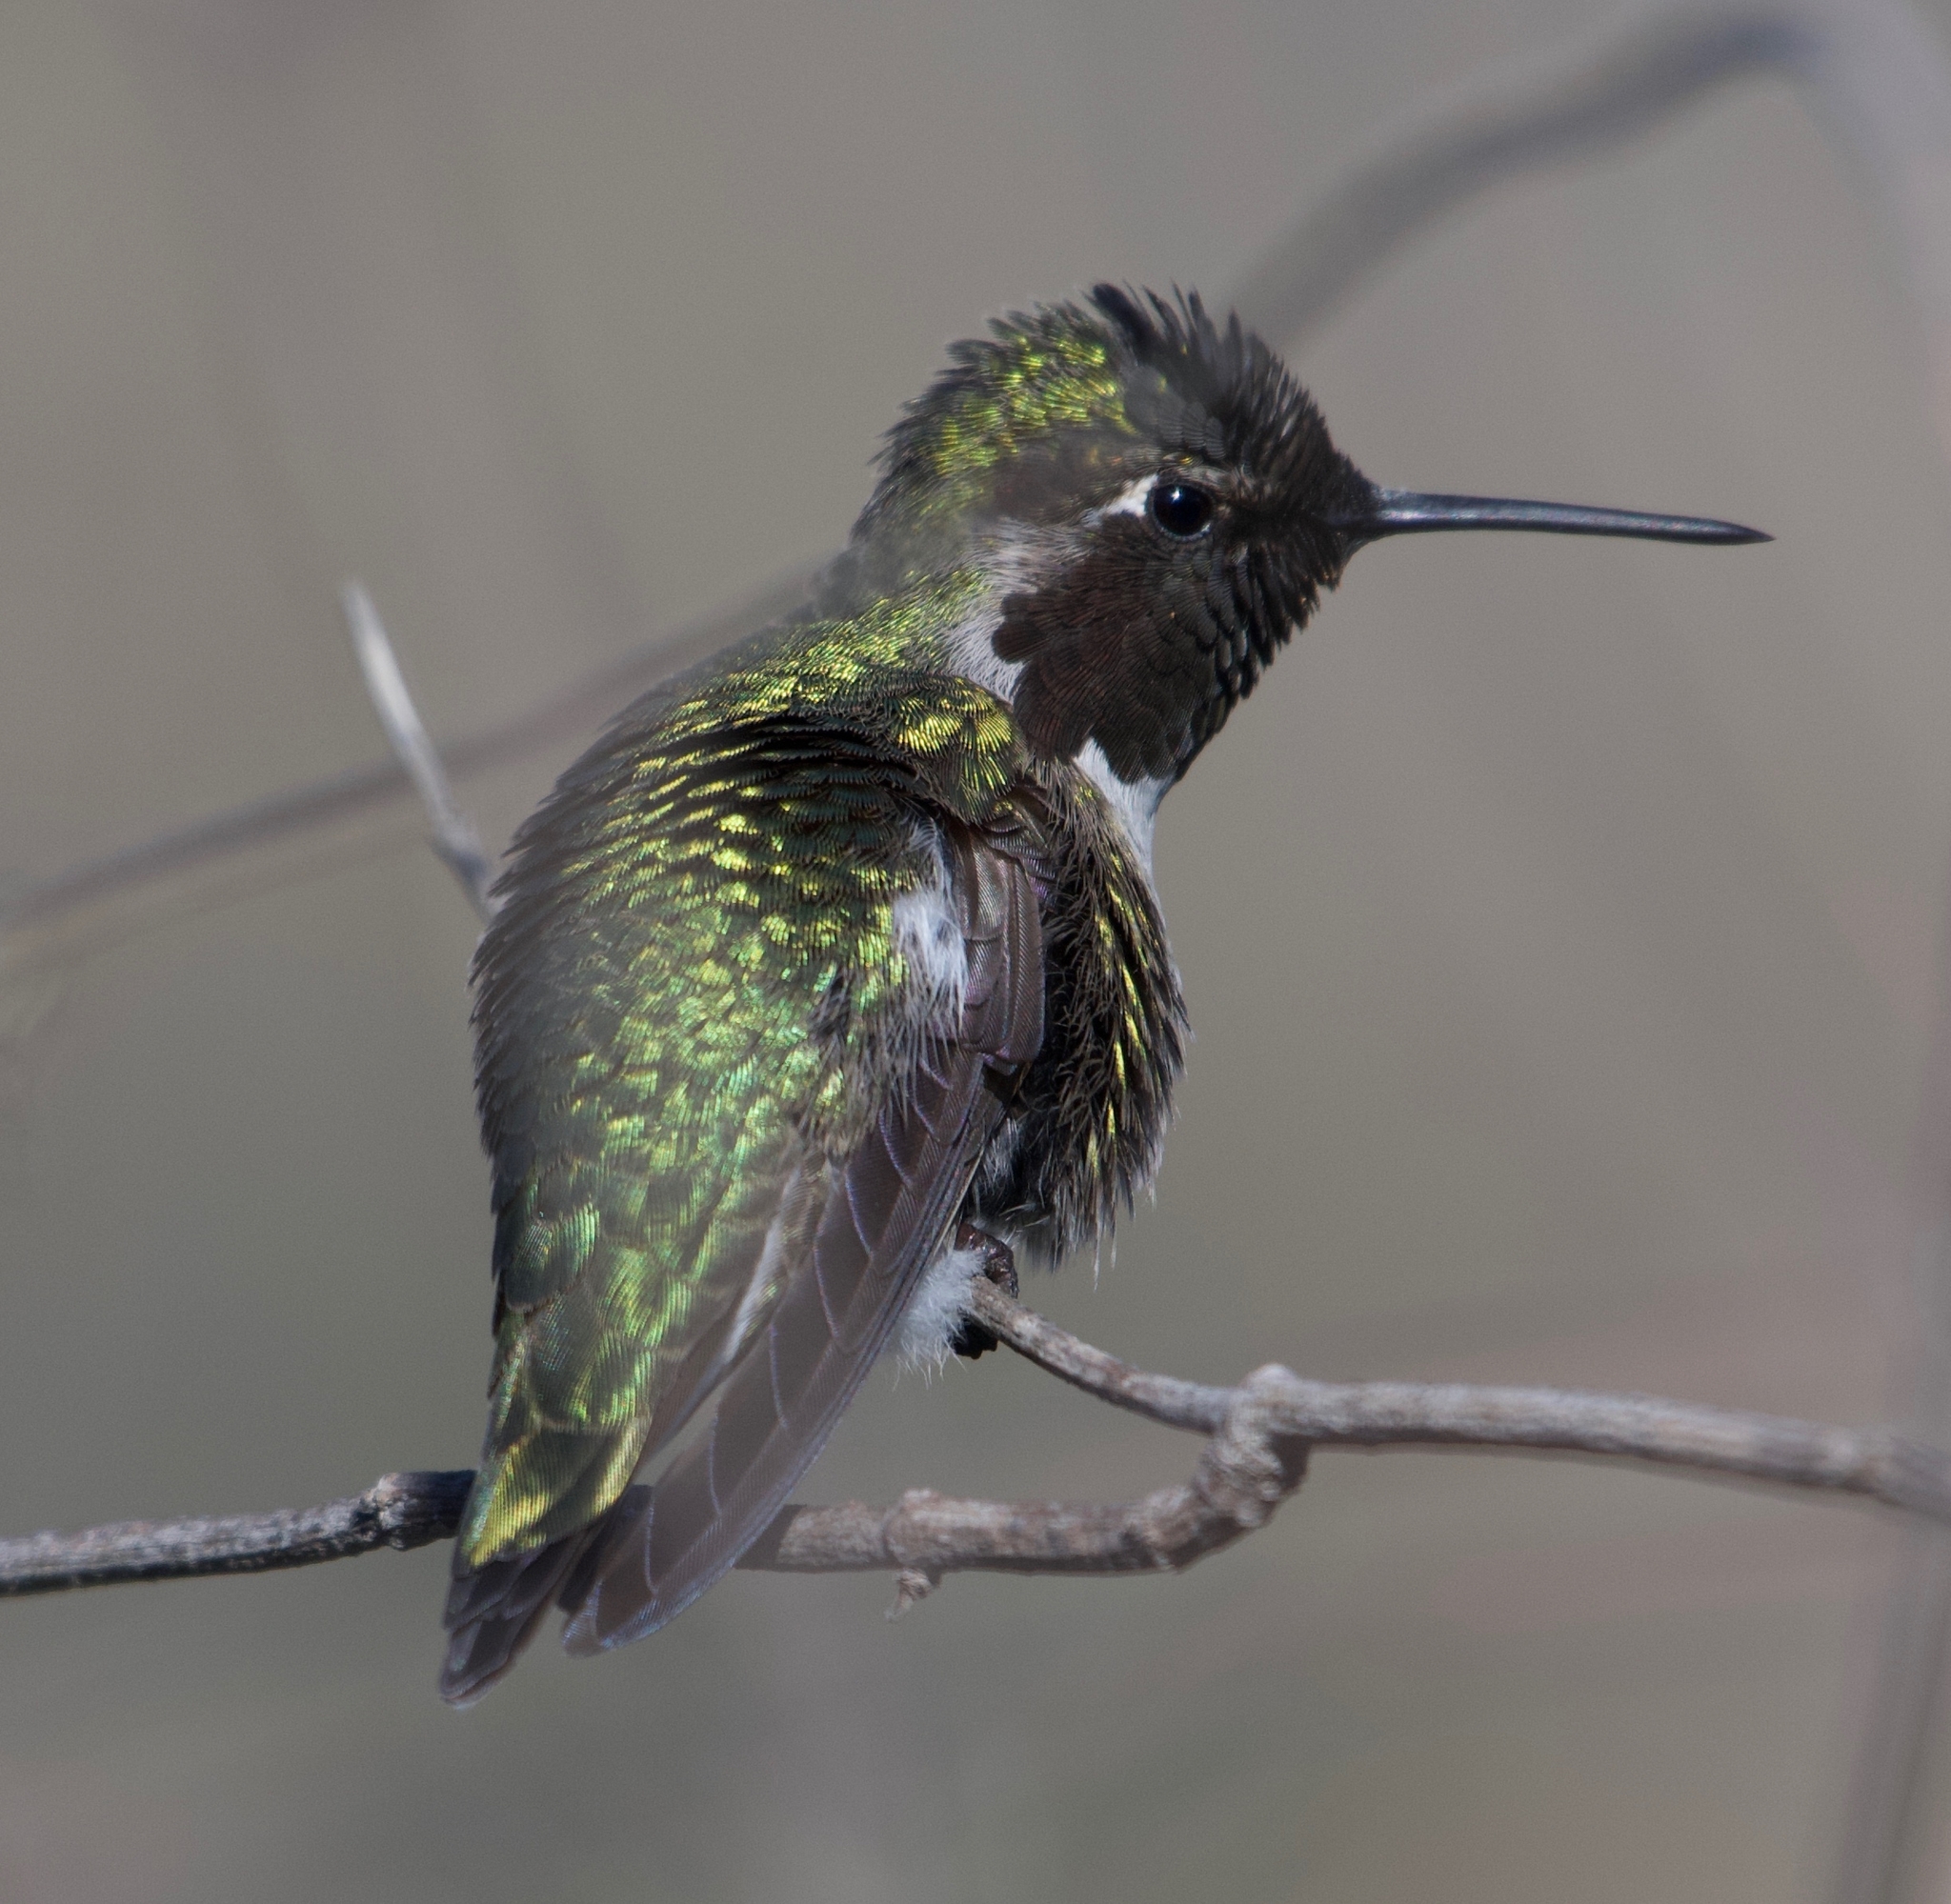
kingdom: Animalia
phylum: Chordata
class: Aves
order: Apodiformes
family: Trochilidae
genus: Calypte
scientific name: Calypte anna
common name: Anna's hummingbird
